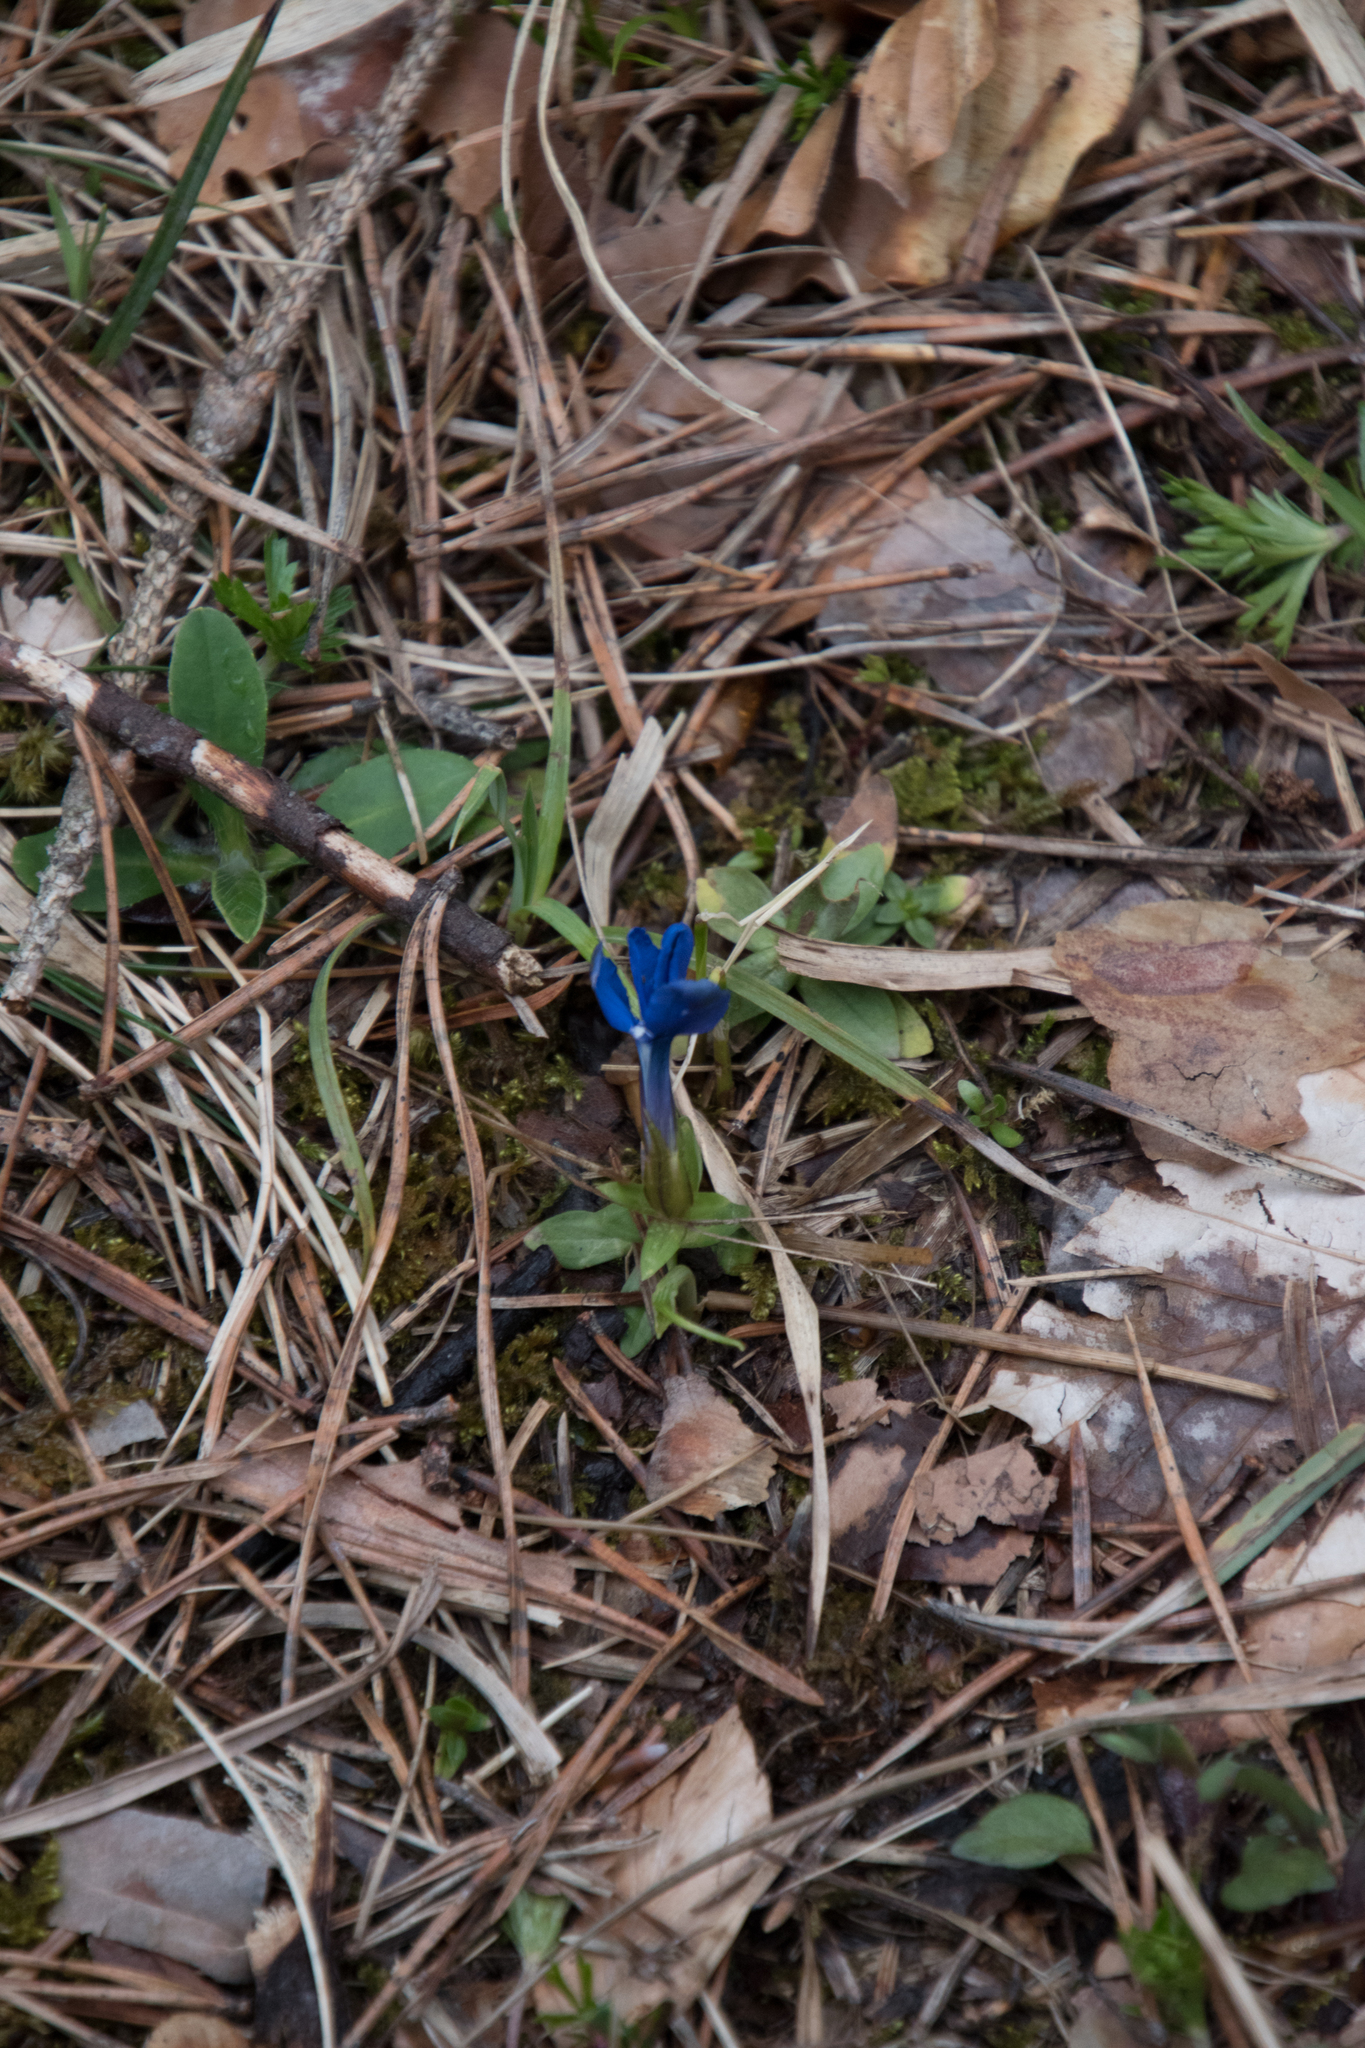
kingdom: Plantae
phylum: Tracheophyta
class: Magnoliopsida
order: Gentianales
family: Gentianaceae
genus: Gentiana
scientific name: Gentiana verna
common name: Spring gentian
